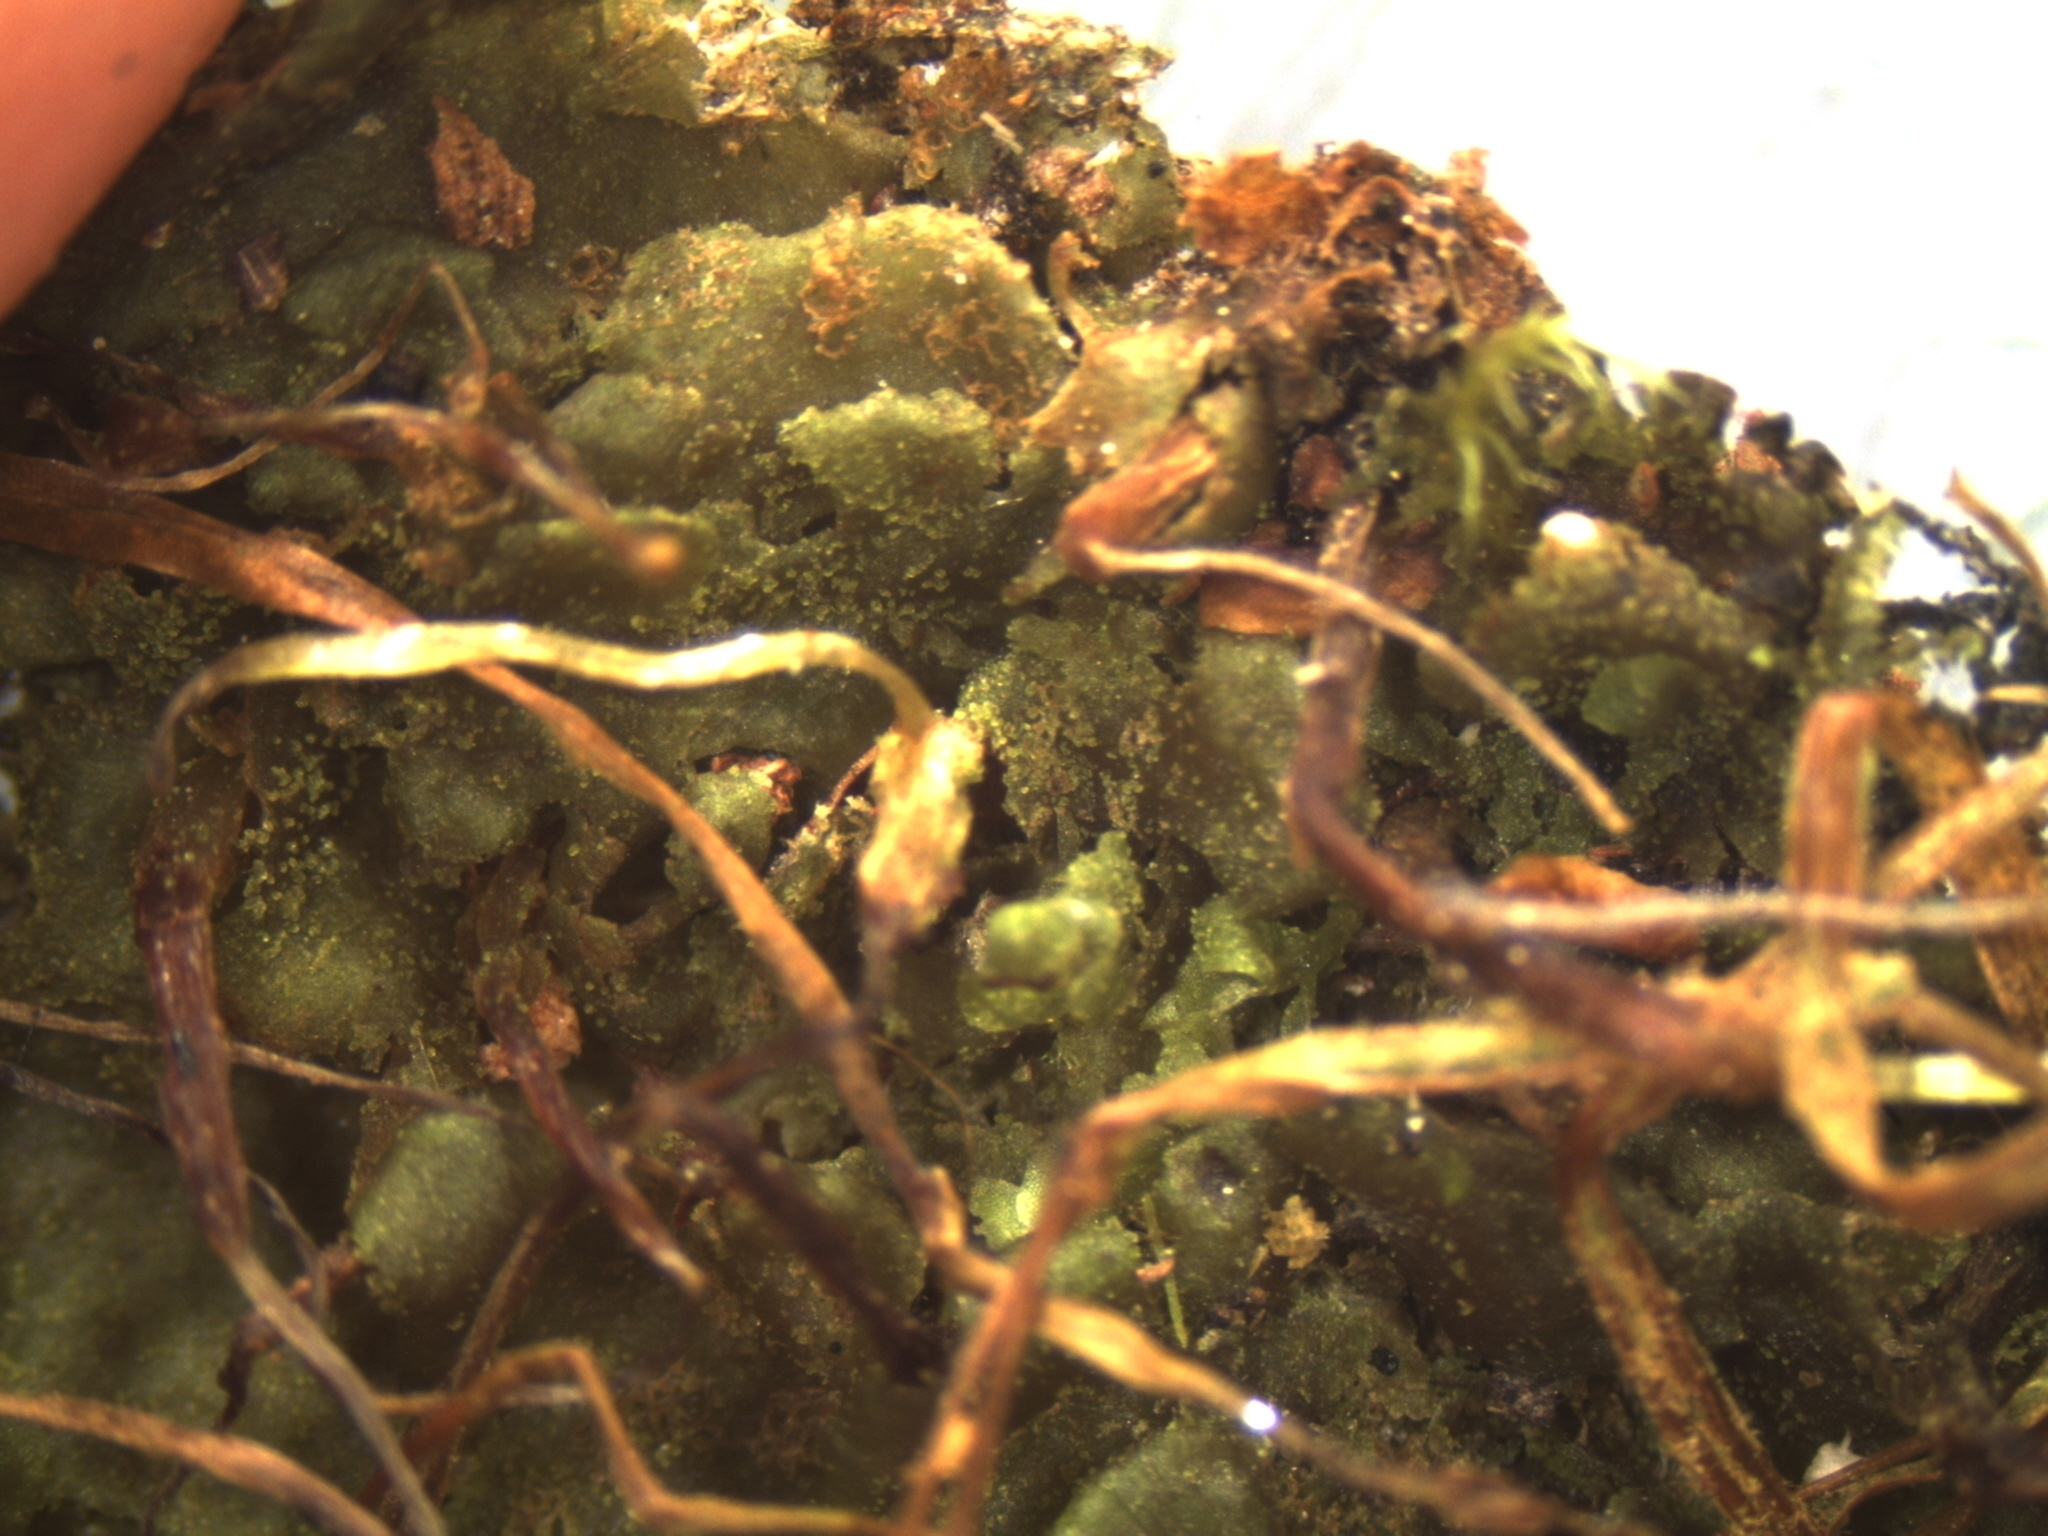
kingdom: Plantae
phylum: Anthocerotophyta
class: Anthocerotopsida
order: Dendrocerotales
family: Dendrocerotaceae
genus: Megaceros
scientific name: Megaceros flagellaris
